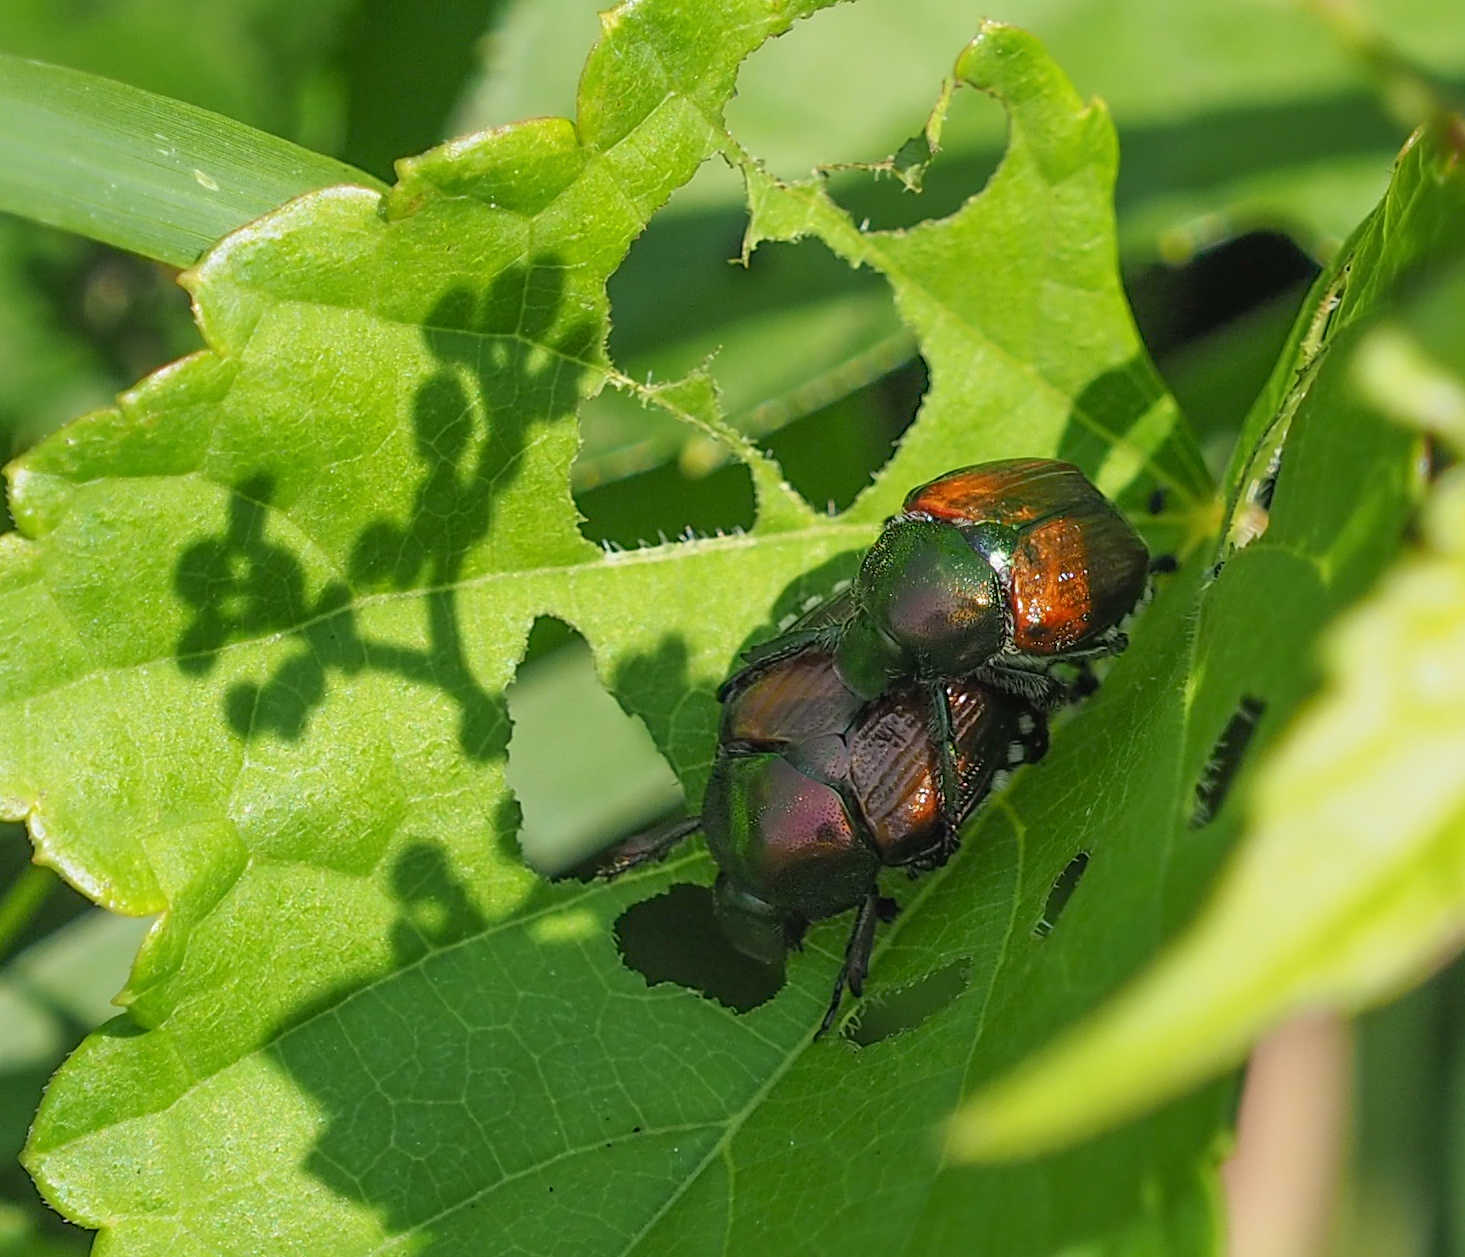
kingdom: Animalia
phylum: Arthropoda
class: Insecta
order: Coleoptera
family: Scarabaeidae
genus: Popillia
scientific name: Popillia japonica
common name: Japanese beetle
